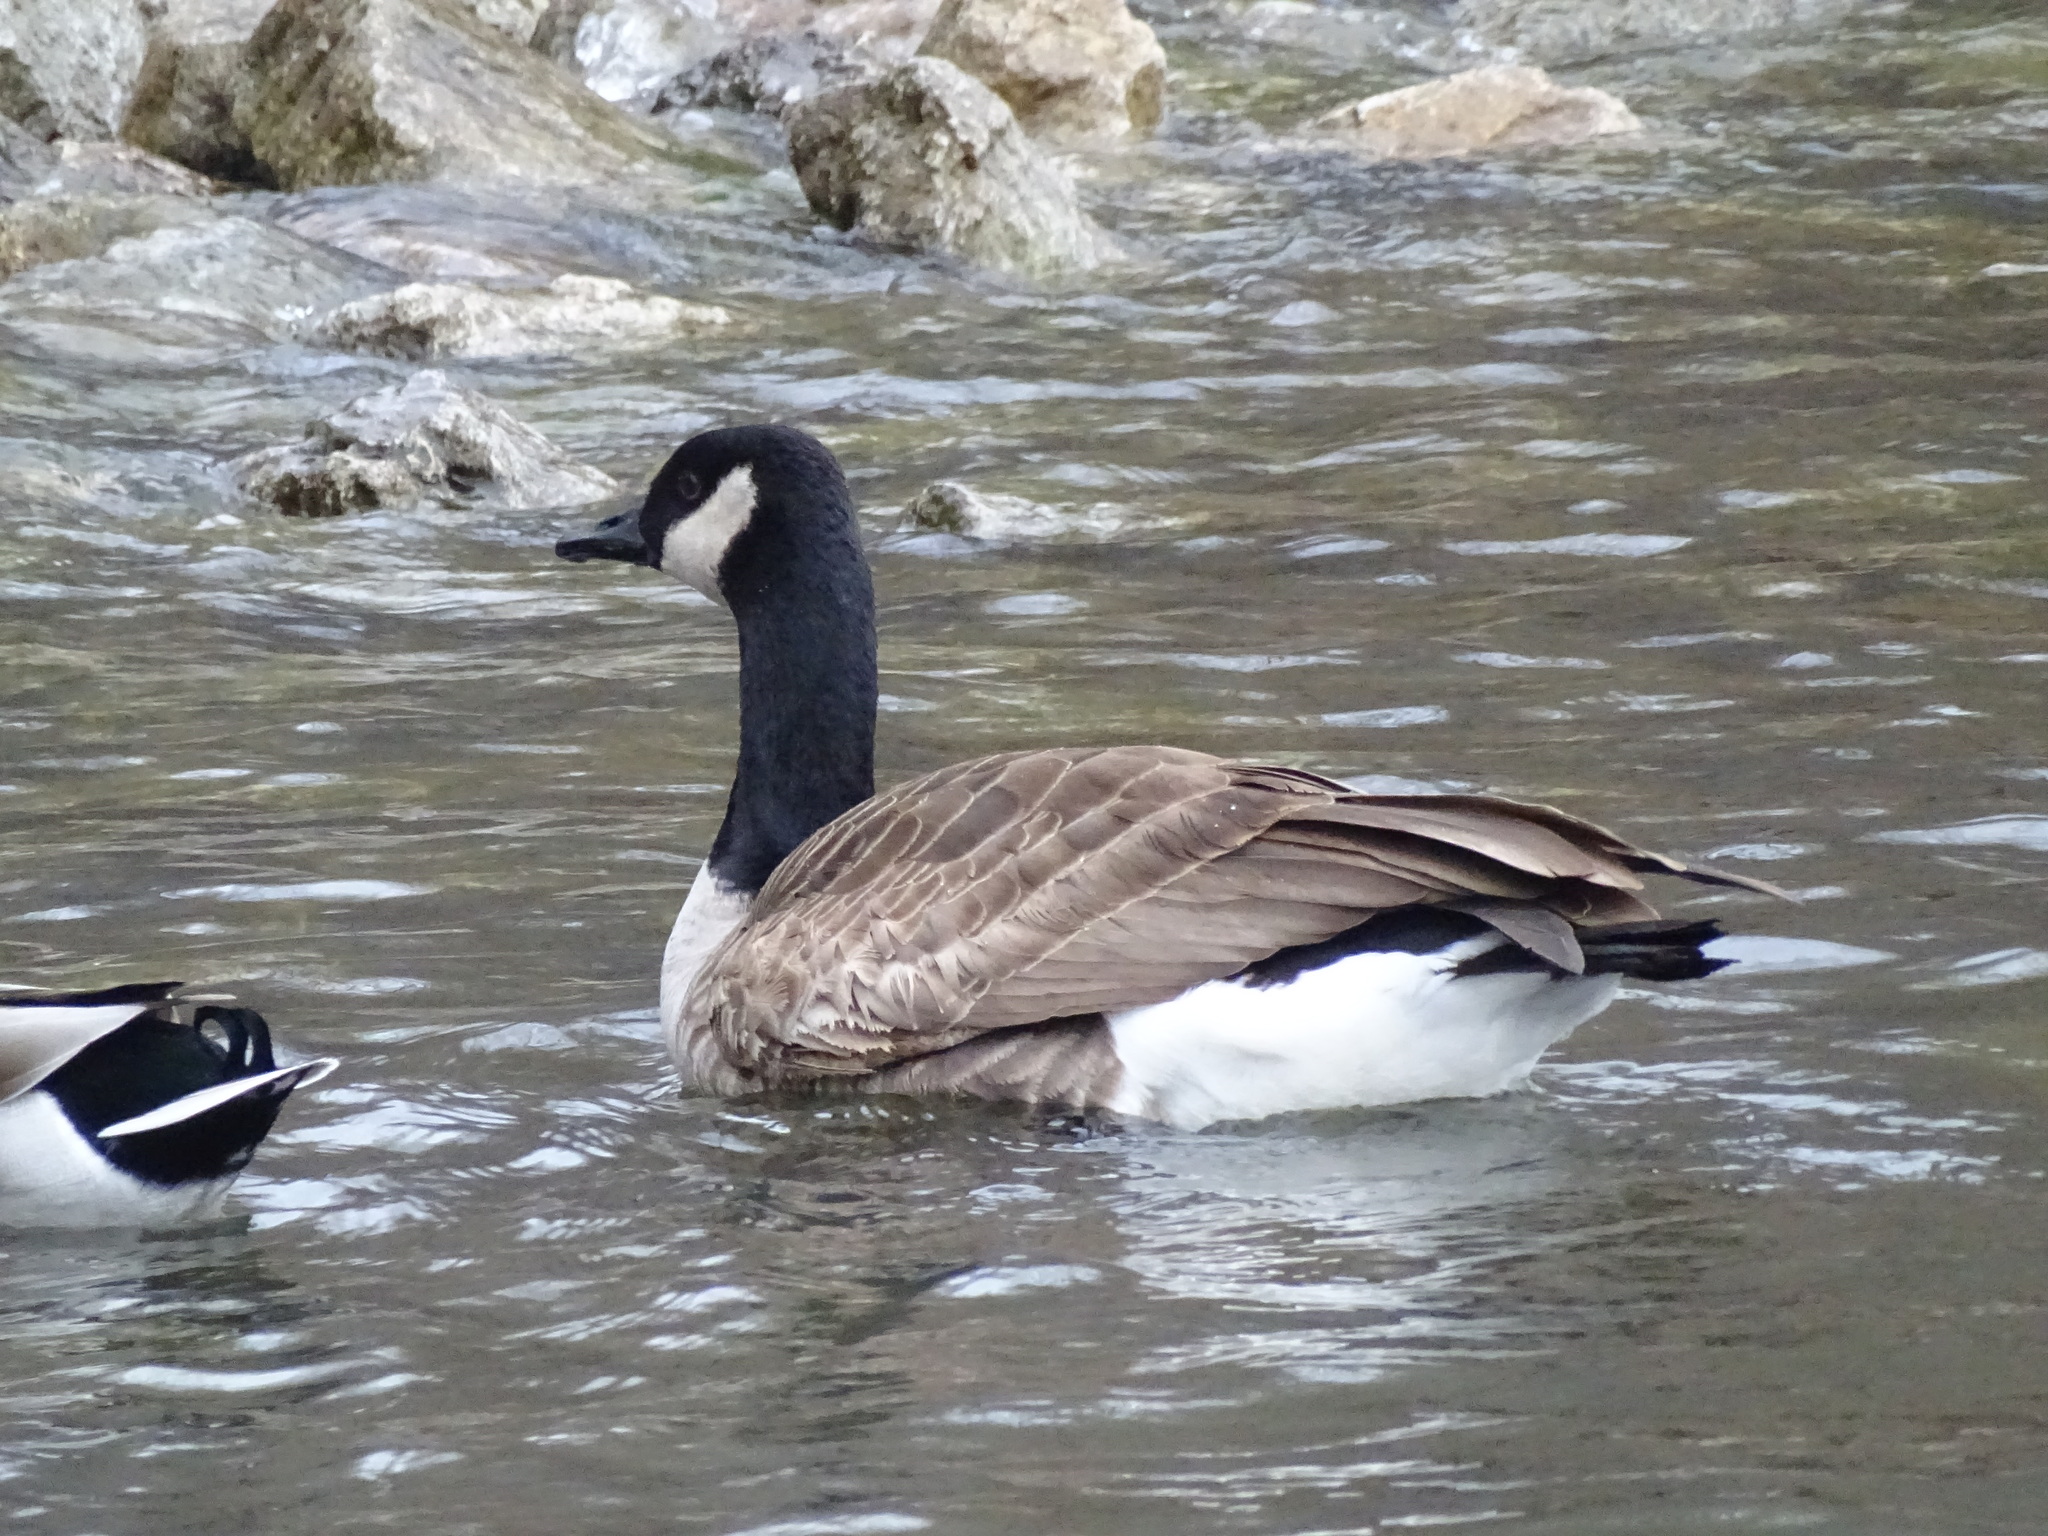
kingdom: Animalia
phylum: Chordata
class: Aves
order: Anseriformes
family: Anatidae
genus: Branta
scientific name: Branta canadensis
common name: Canada goose
